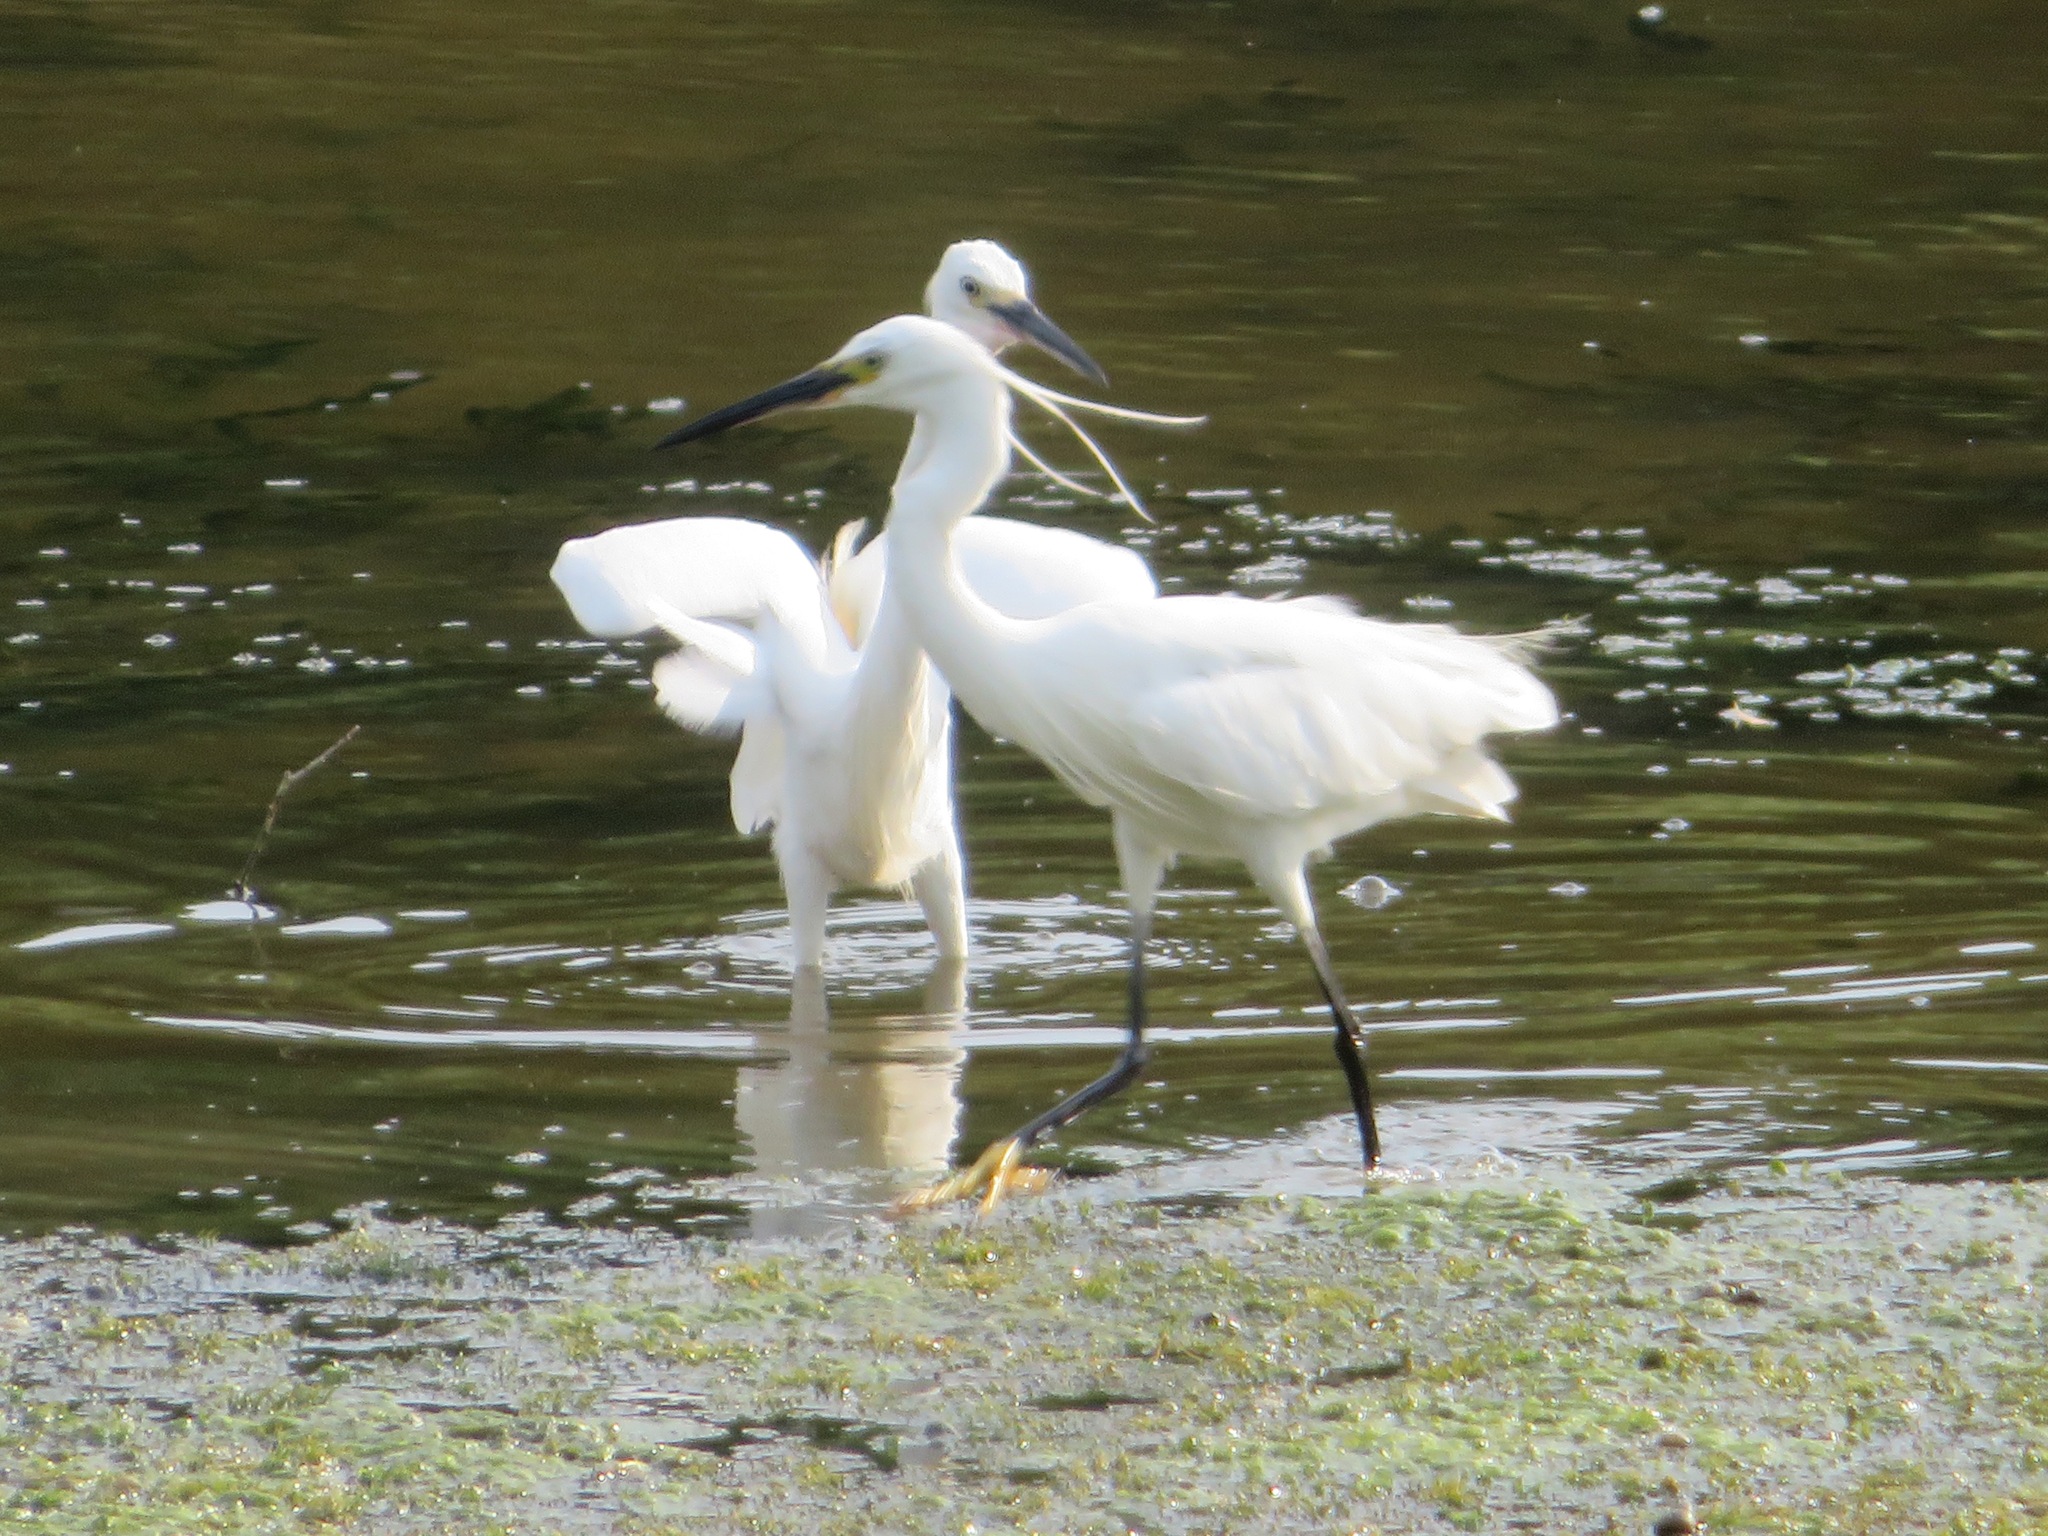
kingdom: Animalia
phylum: Chordata
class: Aves
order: Pelecaniformes
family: Ardeidae
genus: Egretta
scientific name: Egretta garzetta
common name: Little egret
